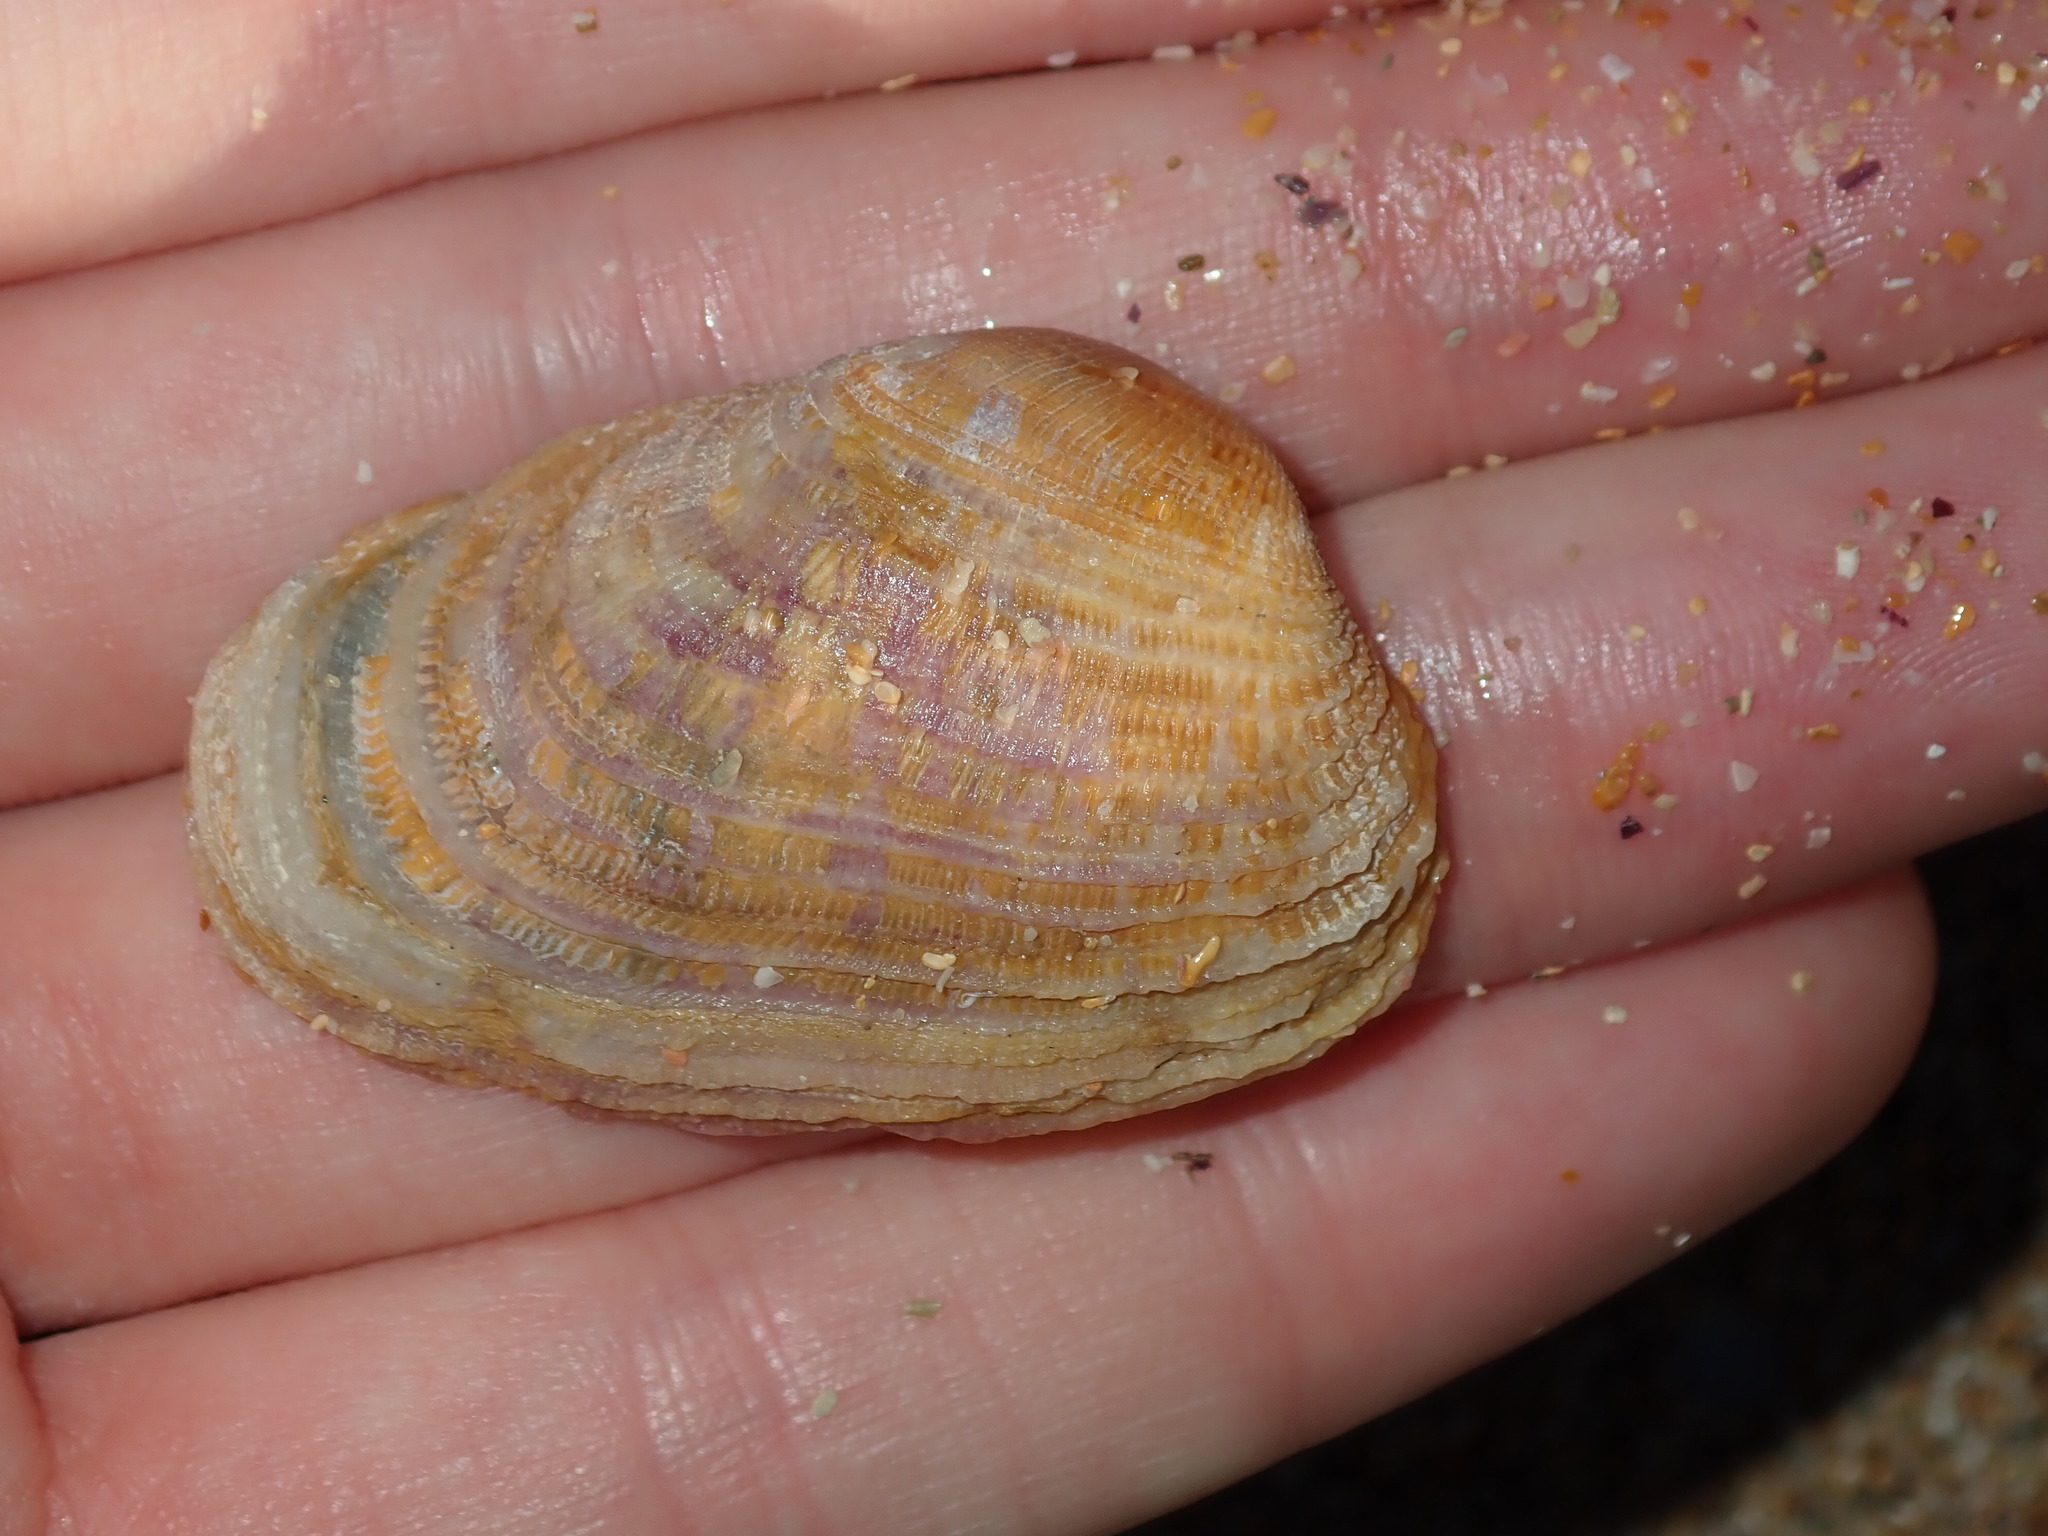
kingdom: Animalia
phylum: Mollusca
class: Bivalvia
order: Venerida
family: Veneridae
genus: Irus
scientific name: Irus crenatus
